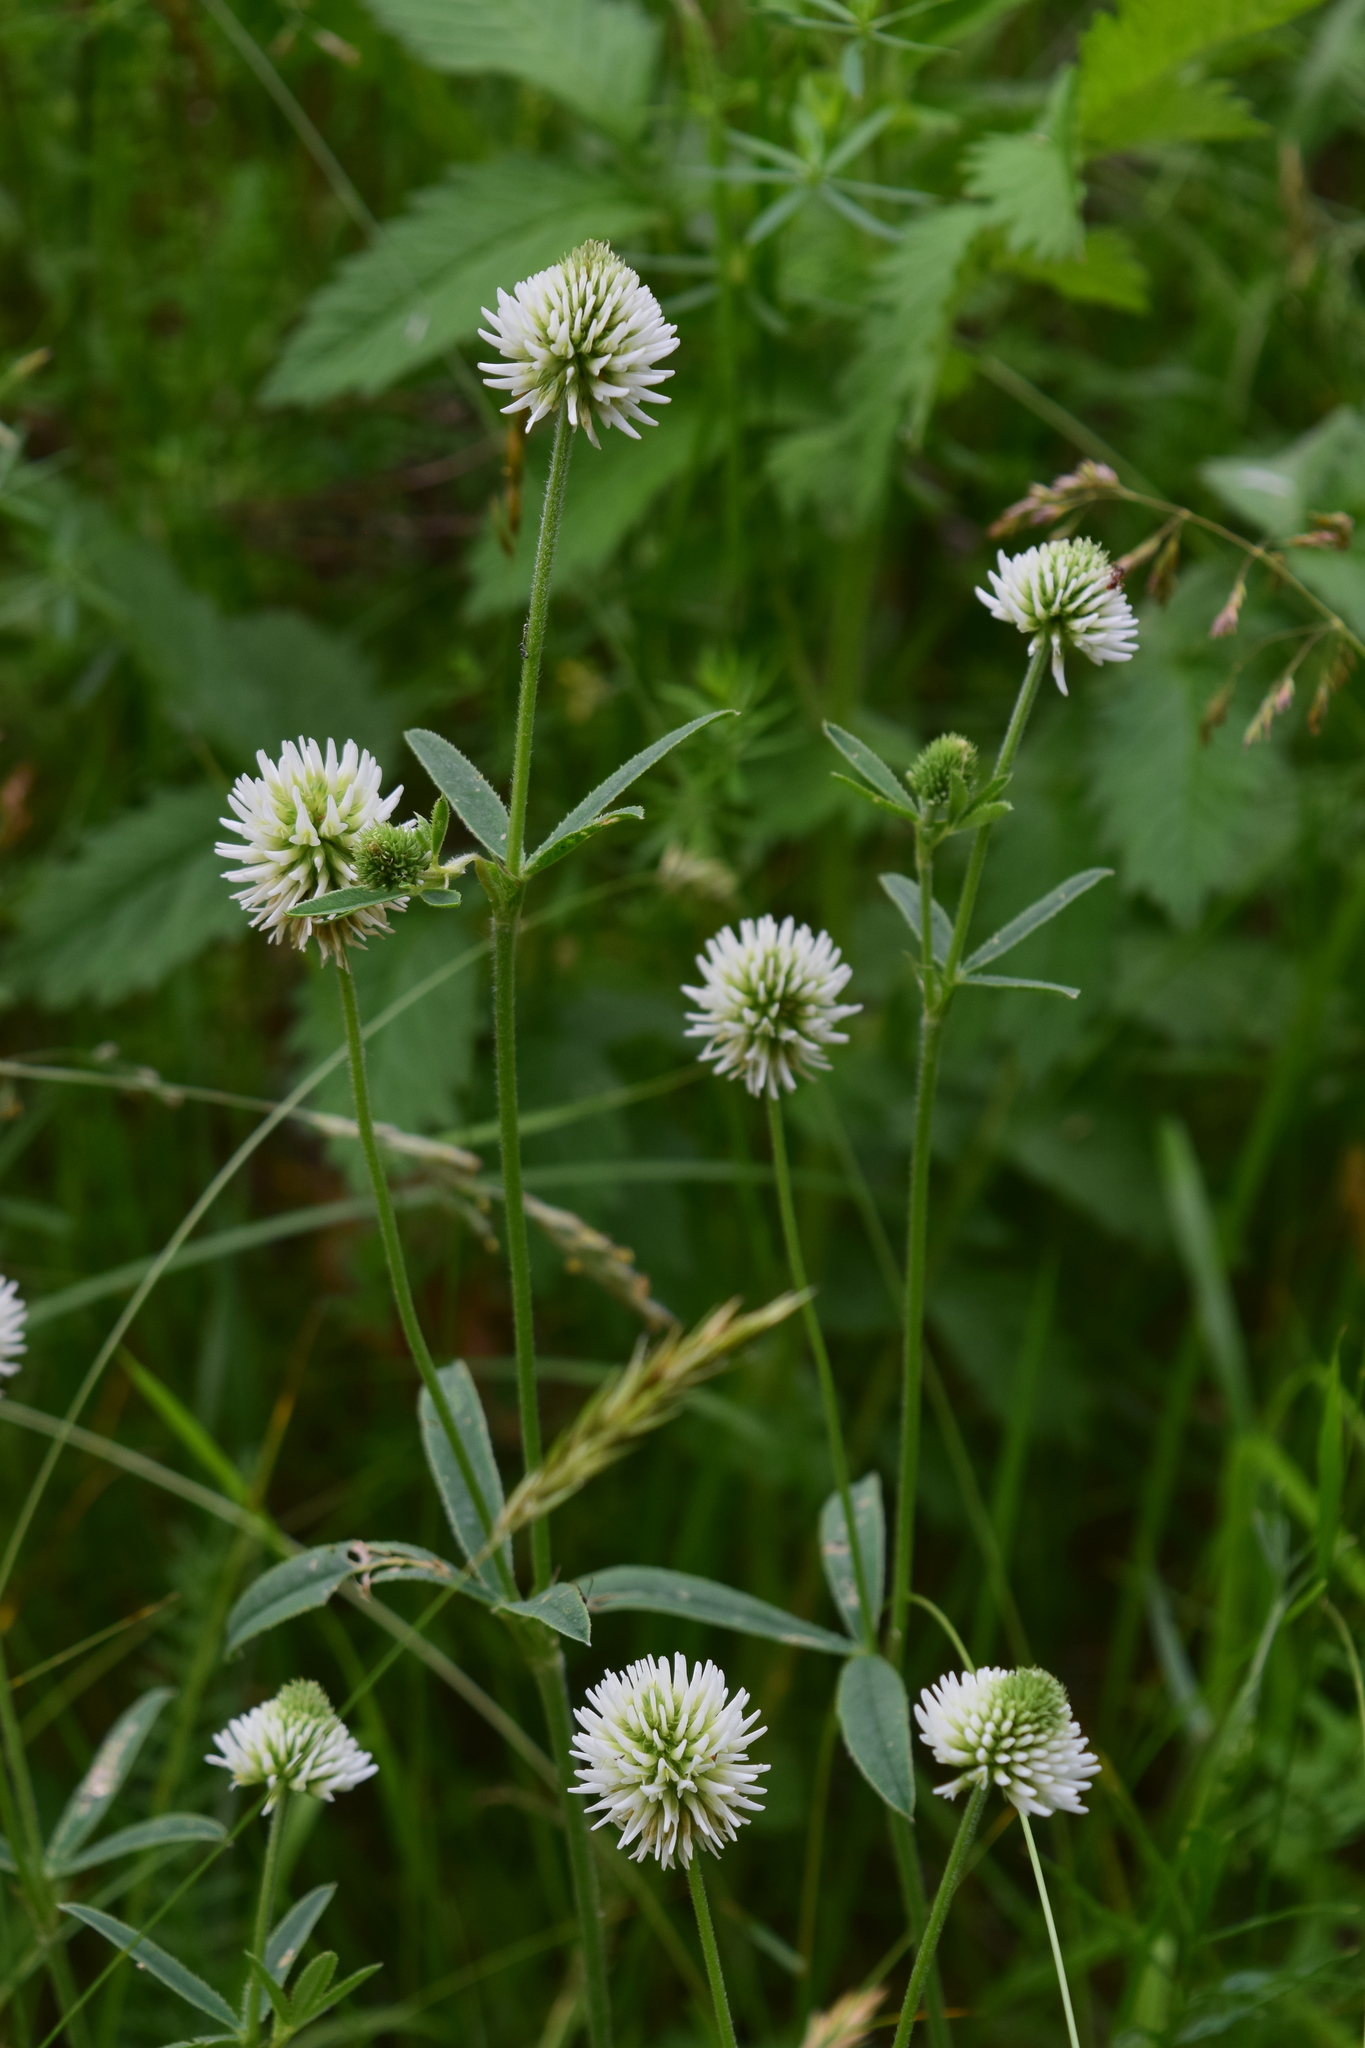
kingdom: Plantae
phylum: Tracheophyta
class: Magnoliopsida
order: Fabales
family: Fabaceae
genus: Trifolium
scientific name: Trifolium montanum
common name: Mountain clover
